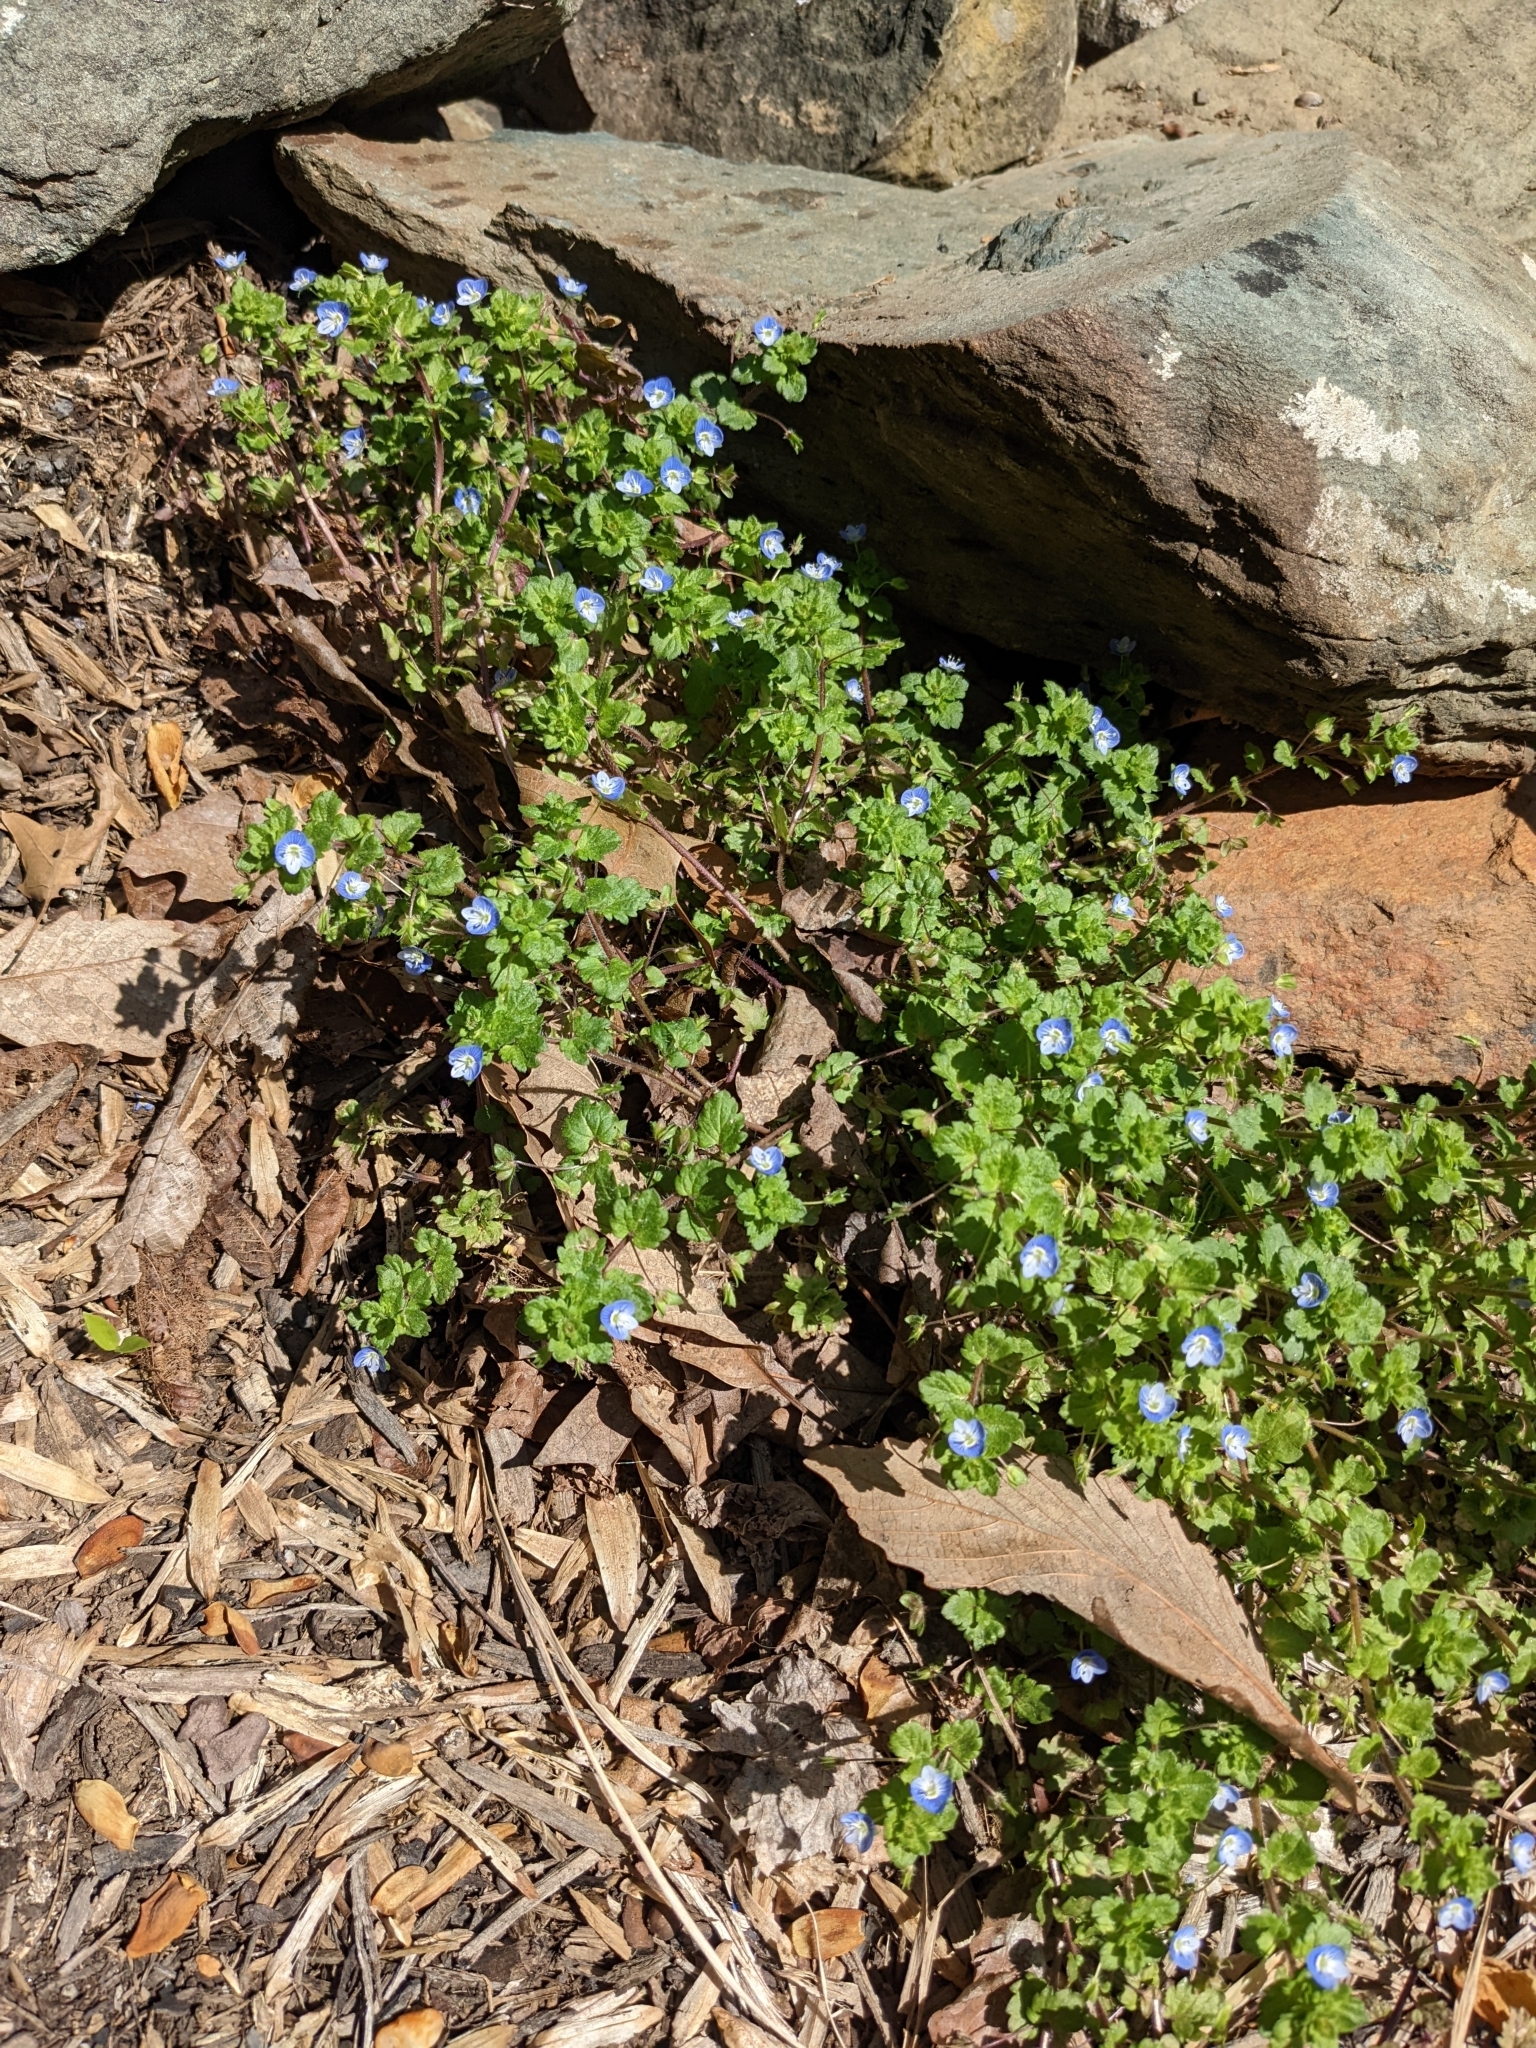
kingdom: Plantae
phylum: Tracheophyta
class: Magnoliopsida
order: Lamiales
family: Plantaginaceae
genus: Veronica
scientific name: Veronica persica
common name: Common field-speedwell
